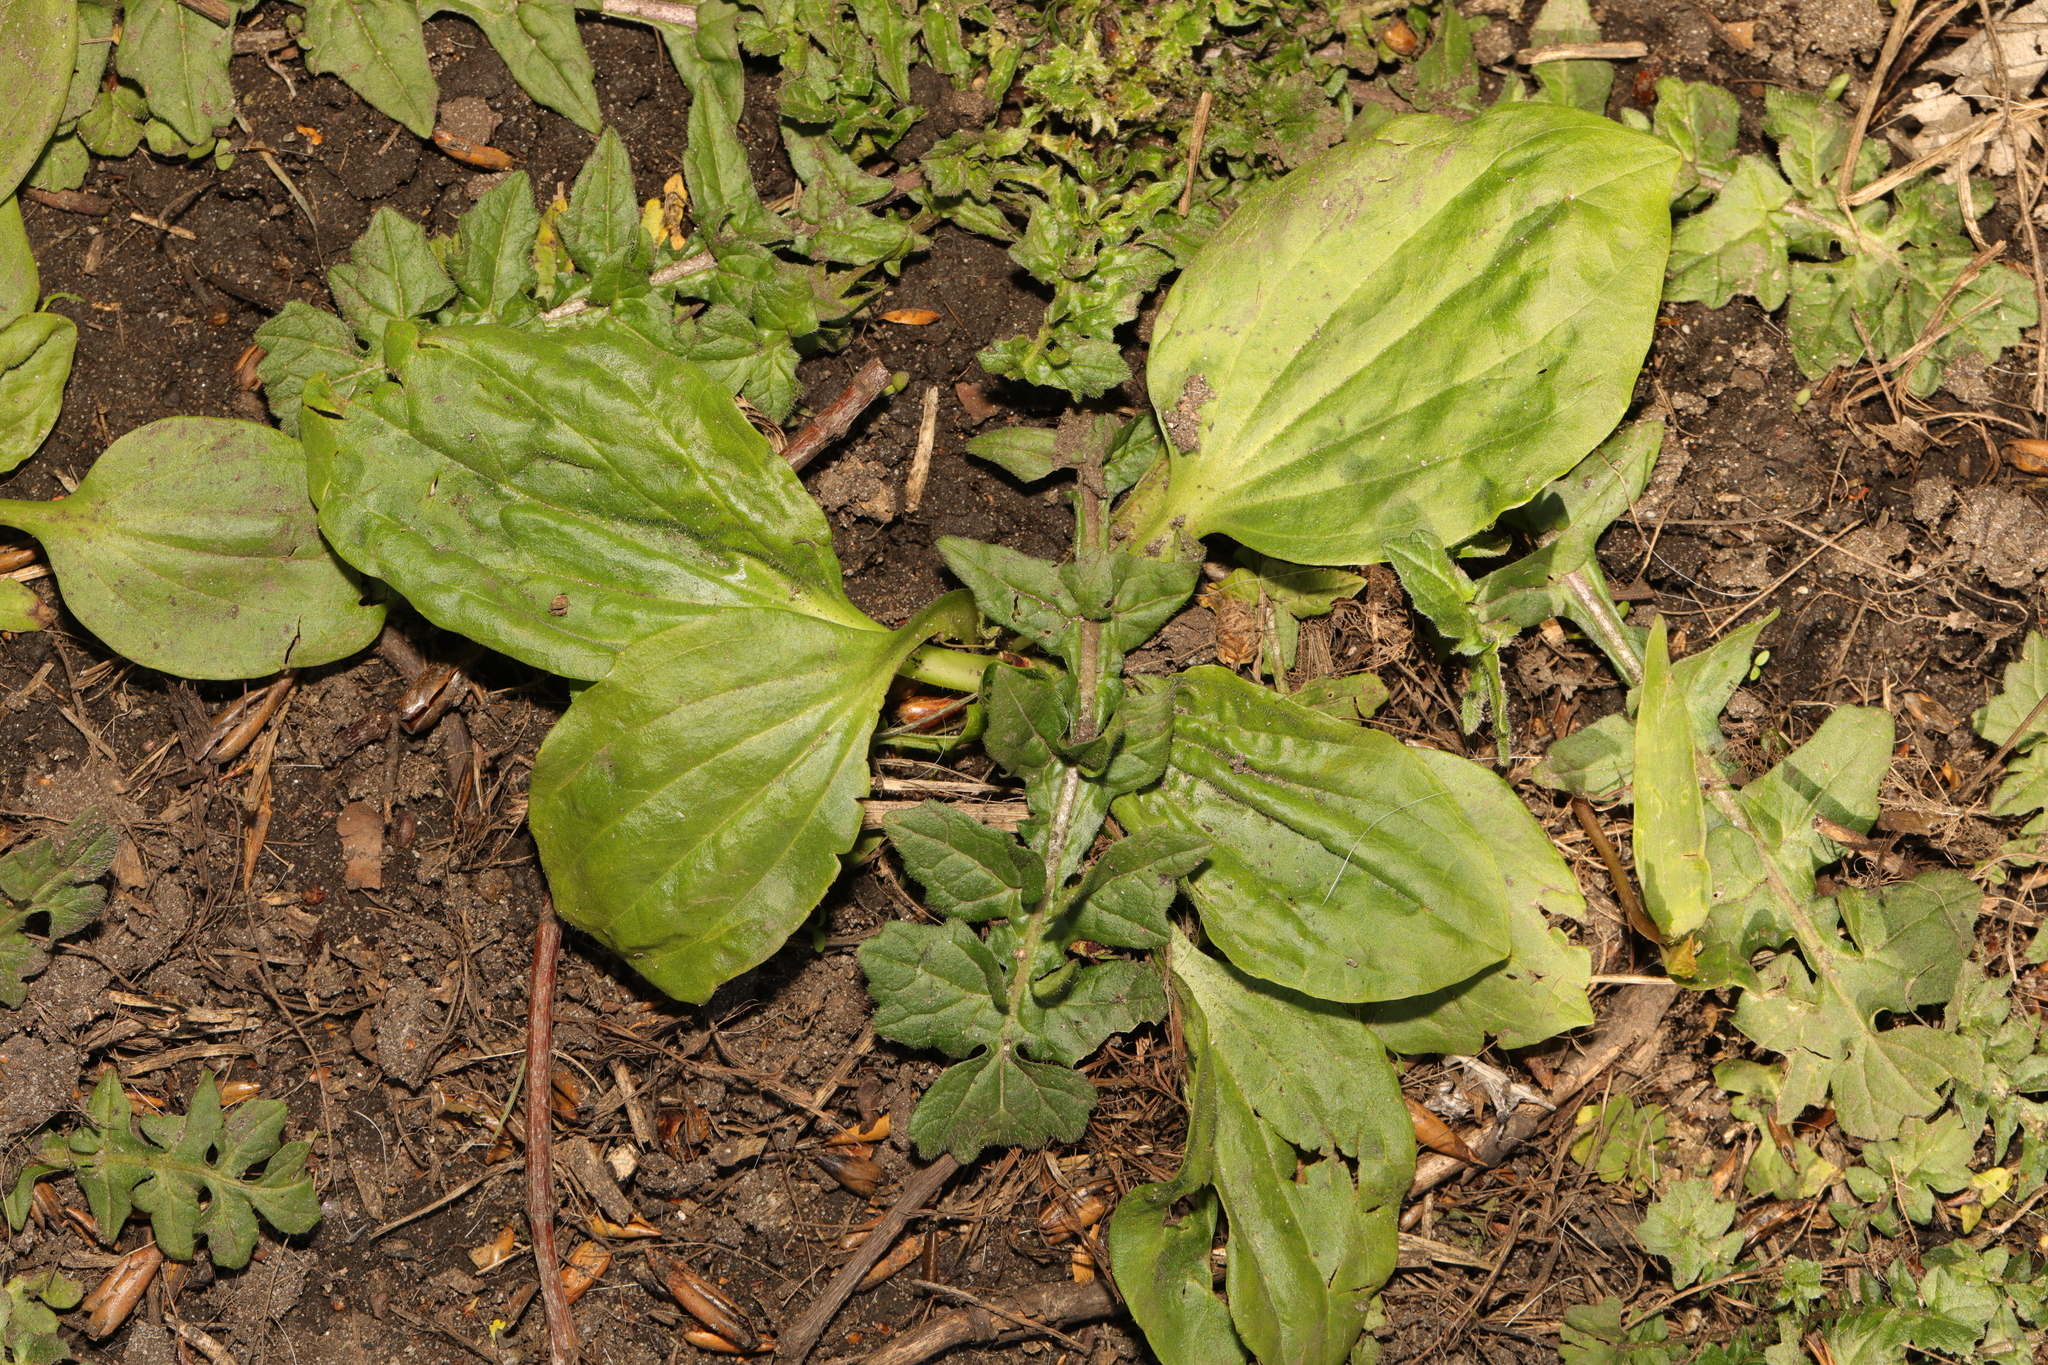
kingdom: Plantae
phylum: Tracheophyta
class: Magnoliopsida
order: Lamiales
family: Plantaginaceae
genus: Plantago
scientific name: Plantago major
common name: Common plantain
